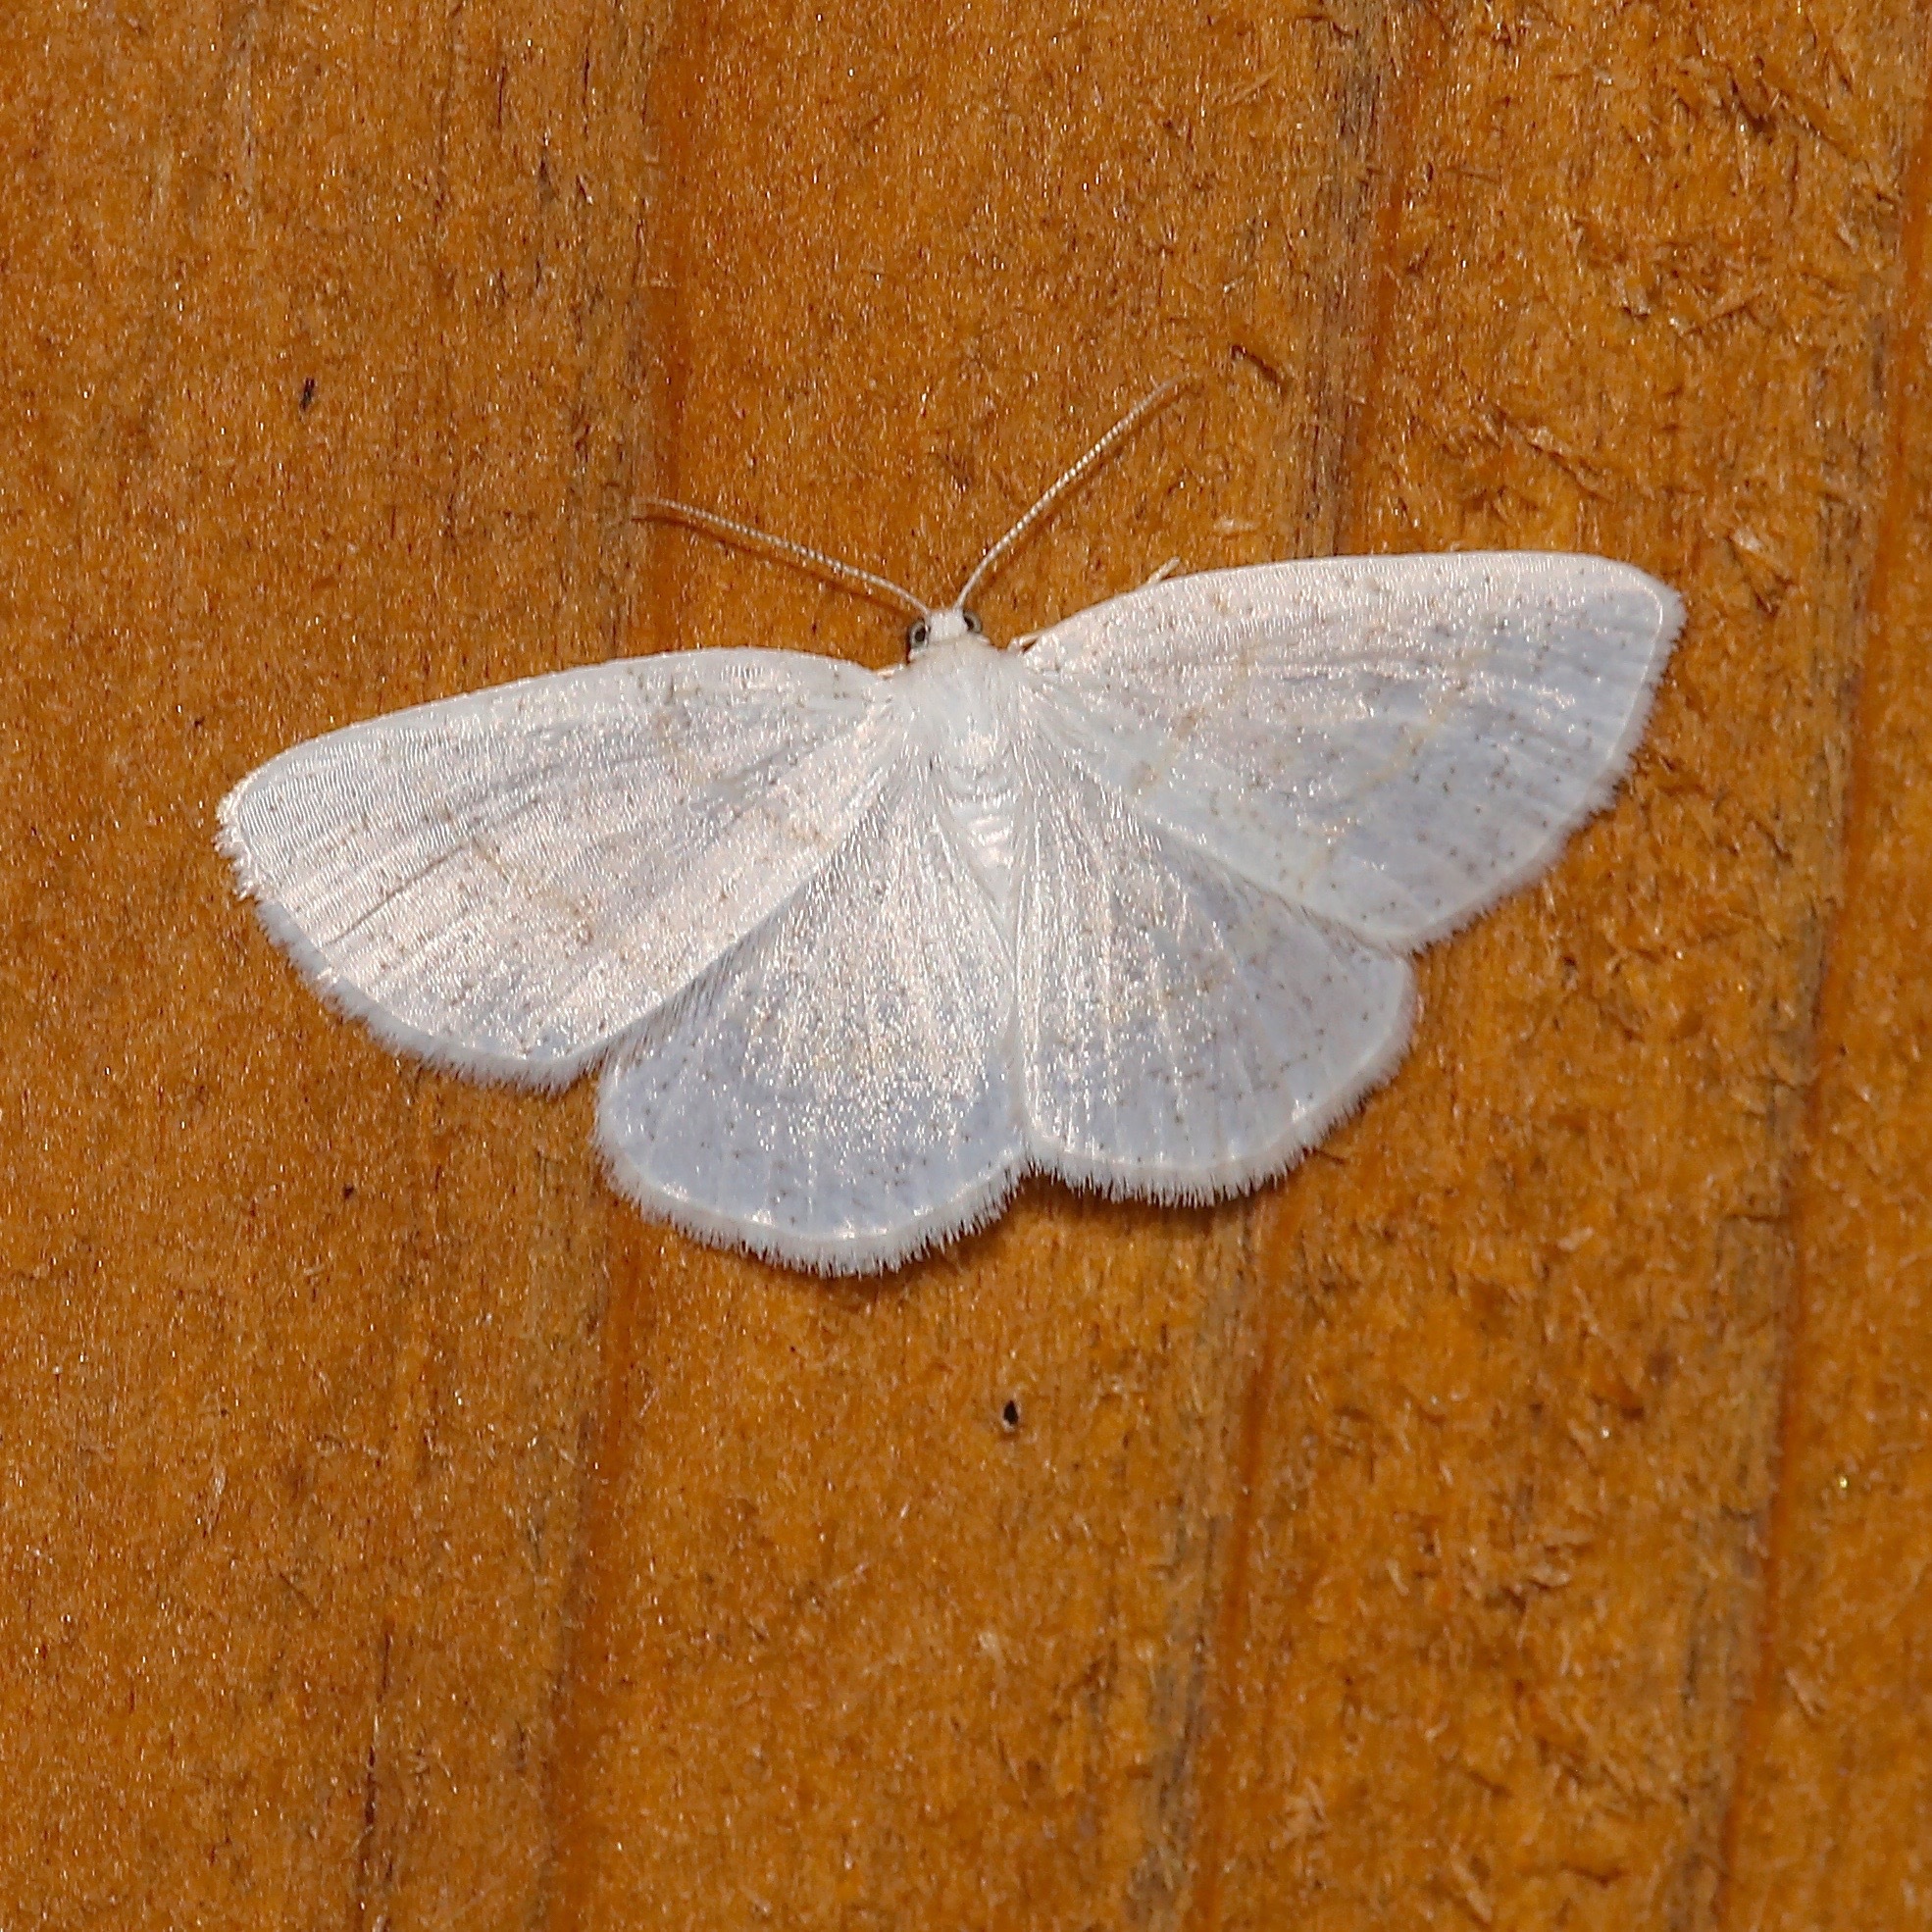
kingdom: Animalia
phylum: Arthropoda
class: Insecta
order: Lepidoptera
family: Geometridae
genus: Cabera
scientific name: Cabera erythemaria
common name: Yellow-dusted cream moth
